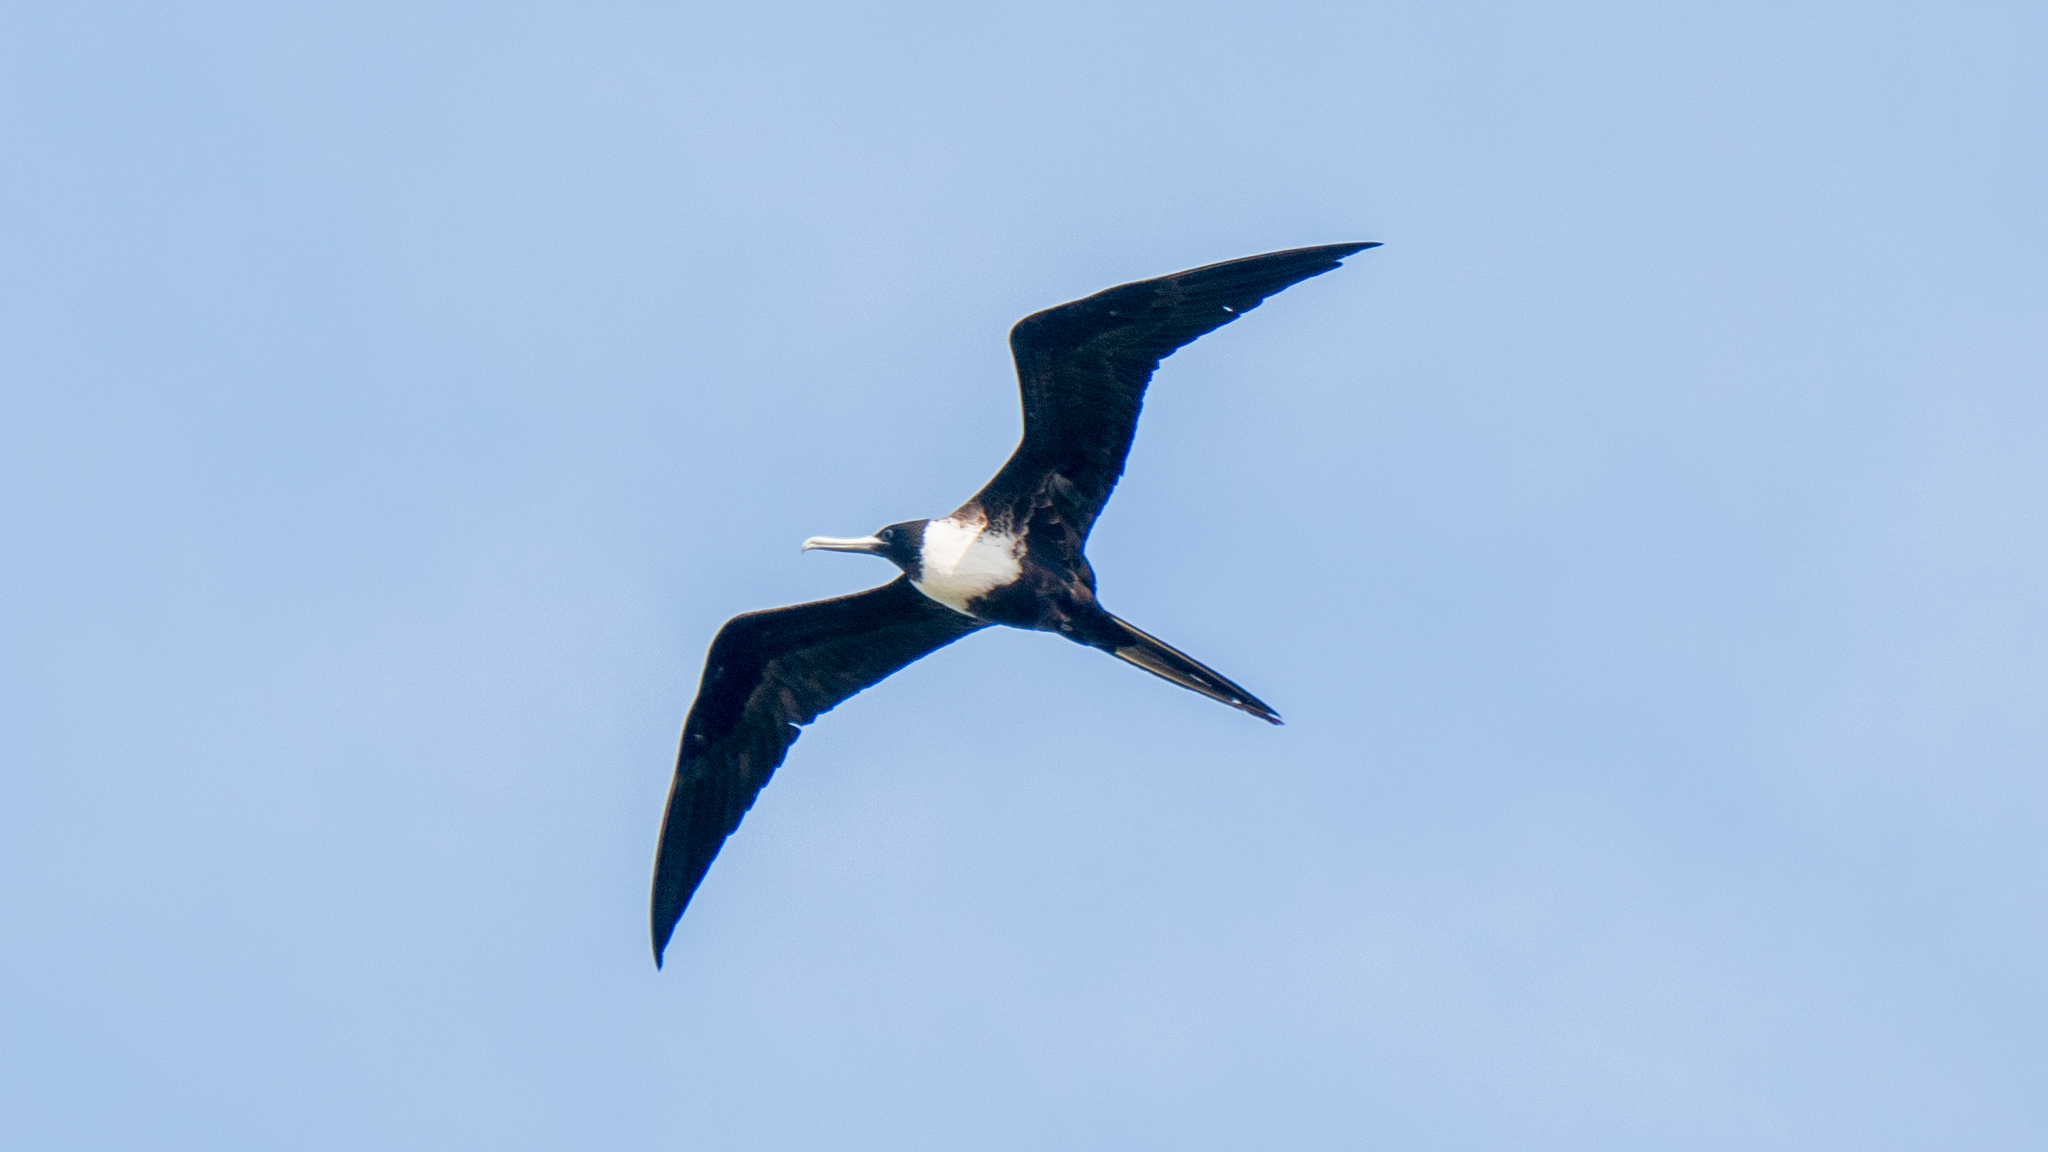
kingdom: Animalia
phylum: Chordata
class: Aves
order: Suliformes
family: Fregatidae
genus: Fregata
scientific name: Fregata magnificens
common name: Magnificent frigatebird
